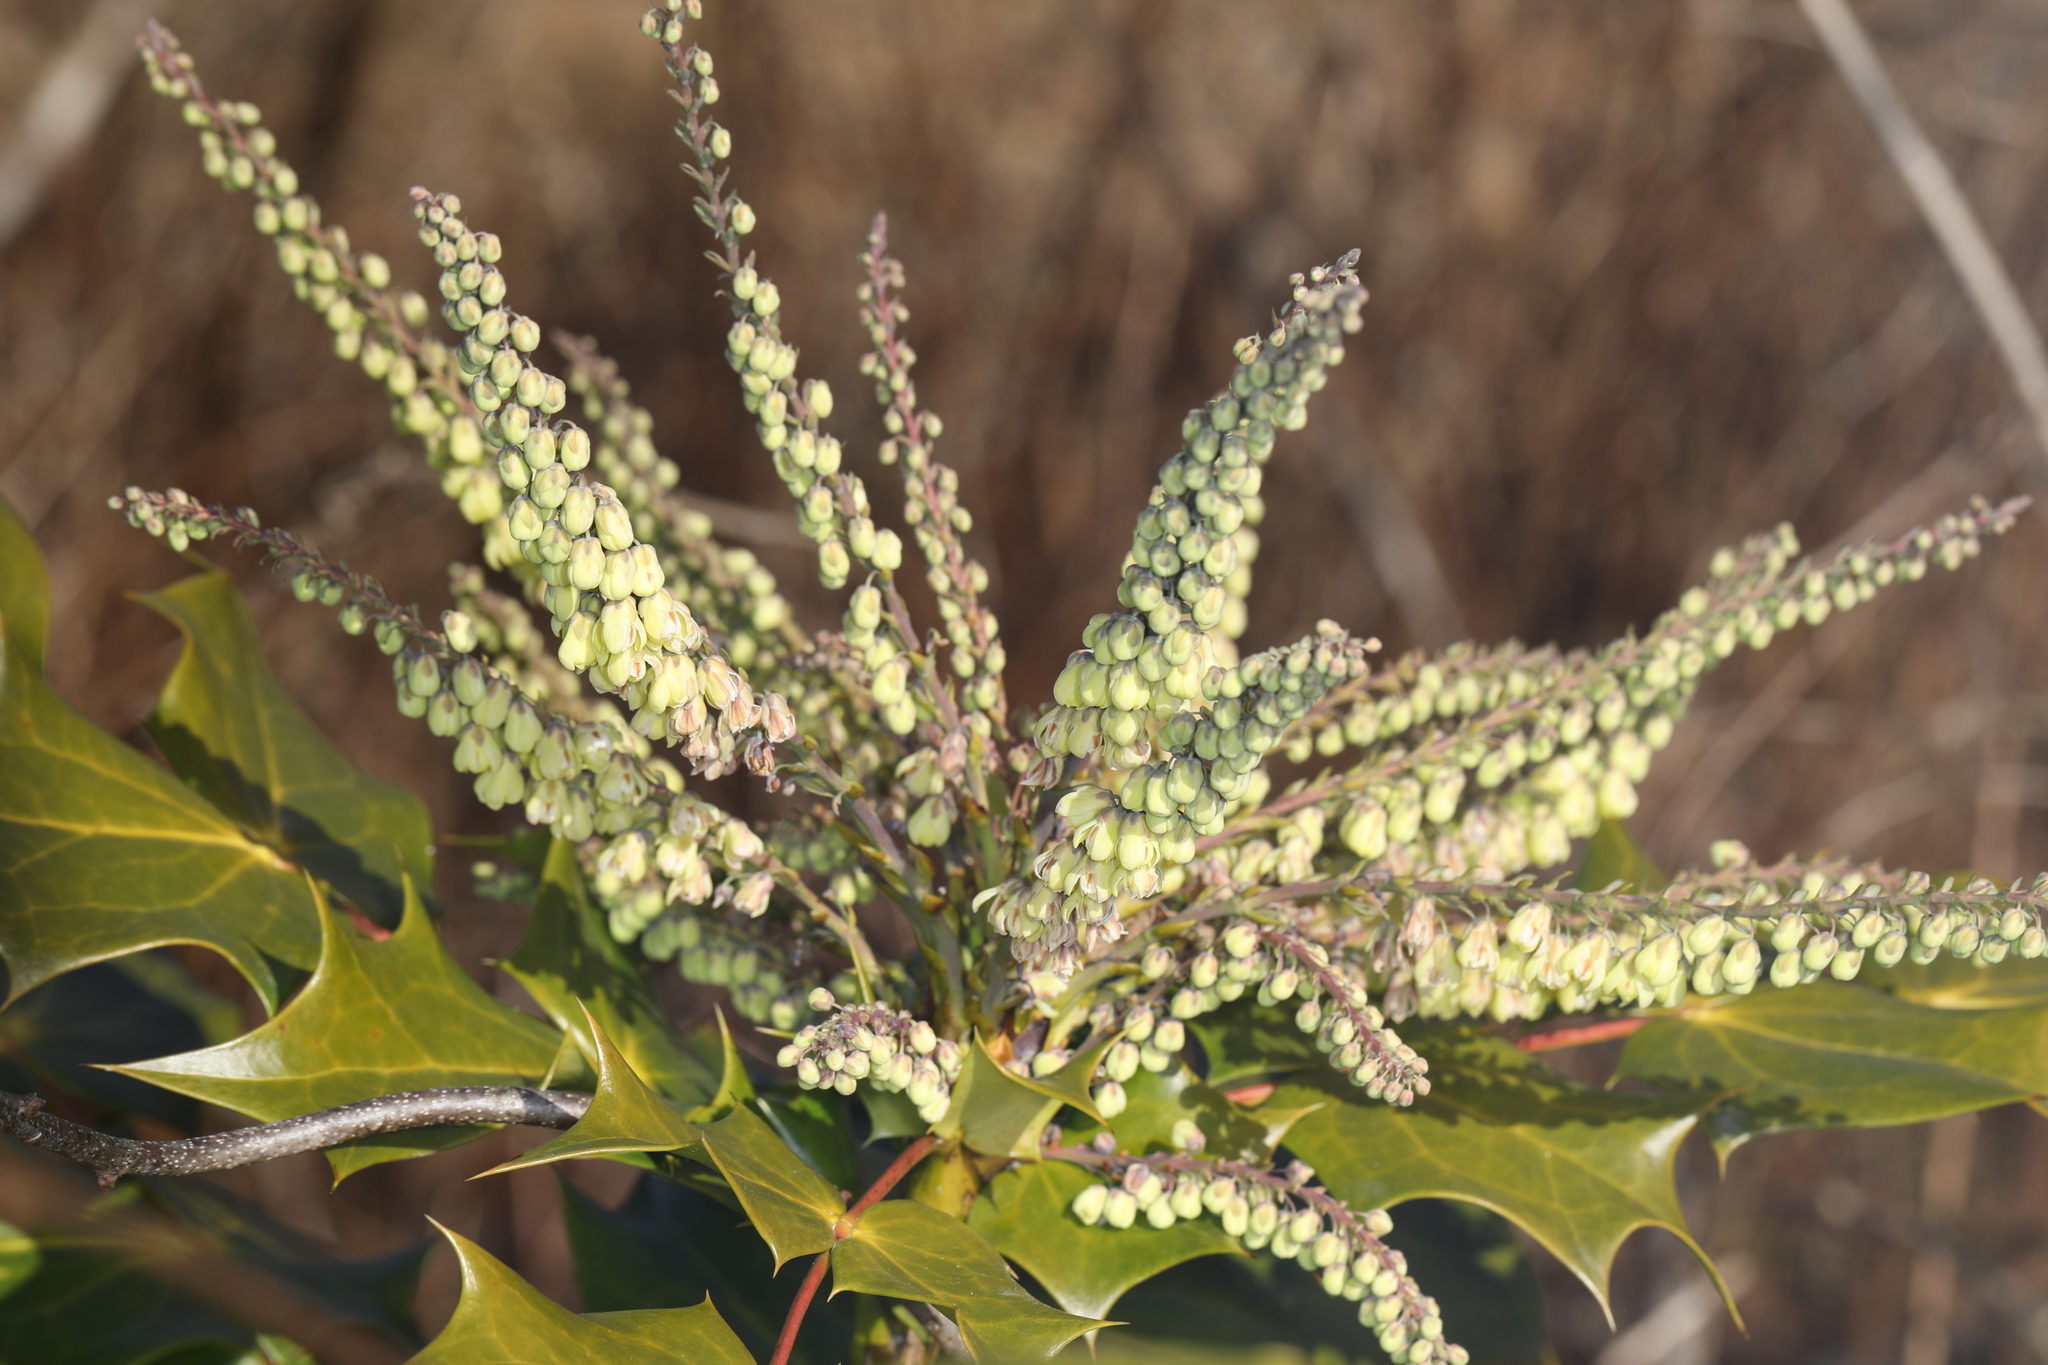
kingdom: Plantae
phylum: Tracheophyta
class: Magnoliopsida
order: Ranunculales
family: Berberidaceae
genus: Mahonia
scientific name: Mahonia bealei
